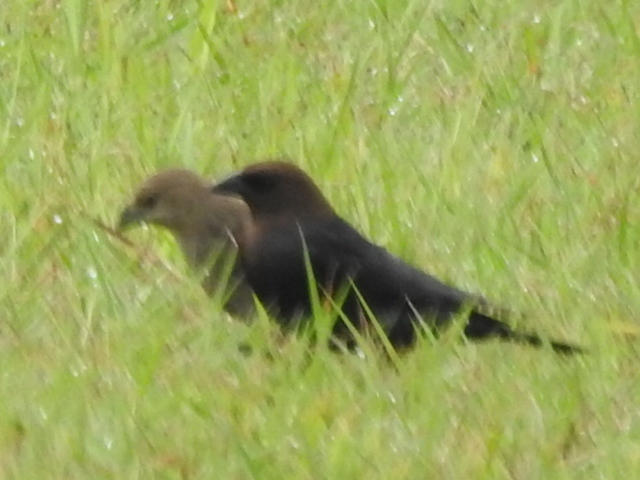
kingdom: Animalia
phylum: Chordata
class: Aves
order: Passeriformes
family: Icteridae
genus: Molothrus
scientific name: Molothrus ater
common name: Brown-headed cowbird
